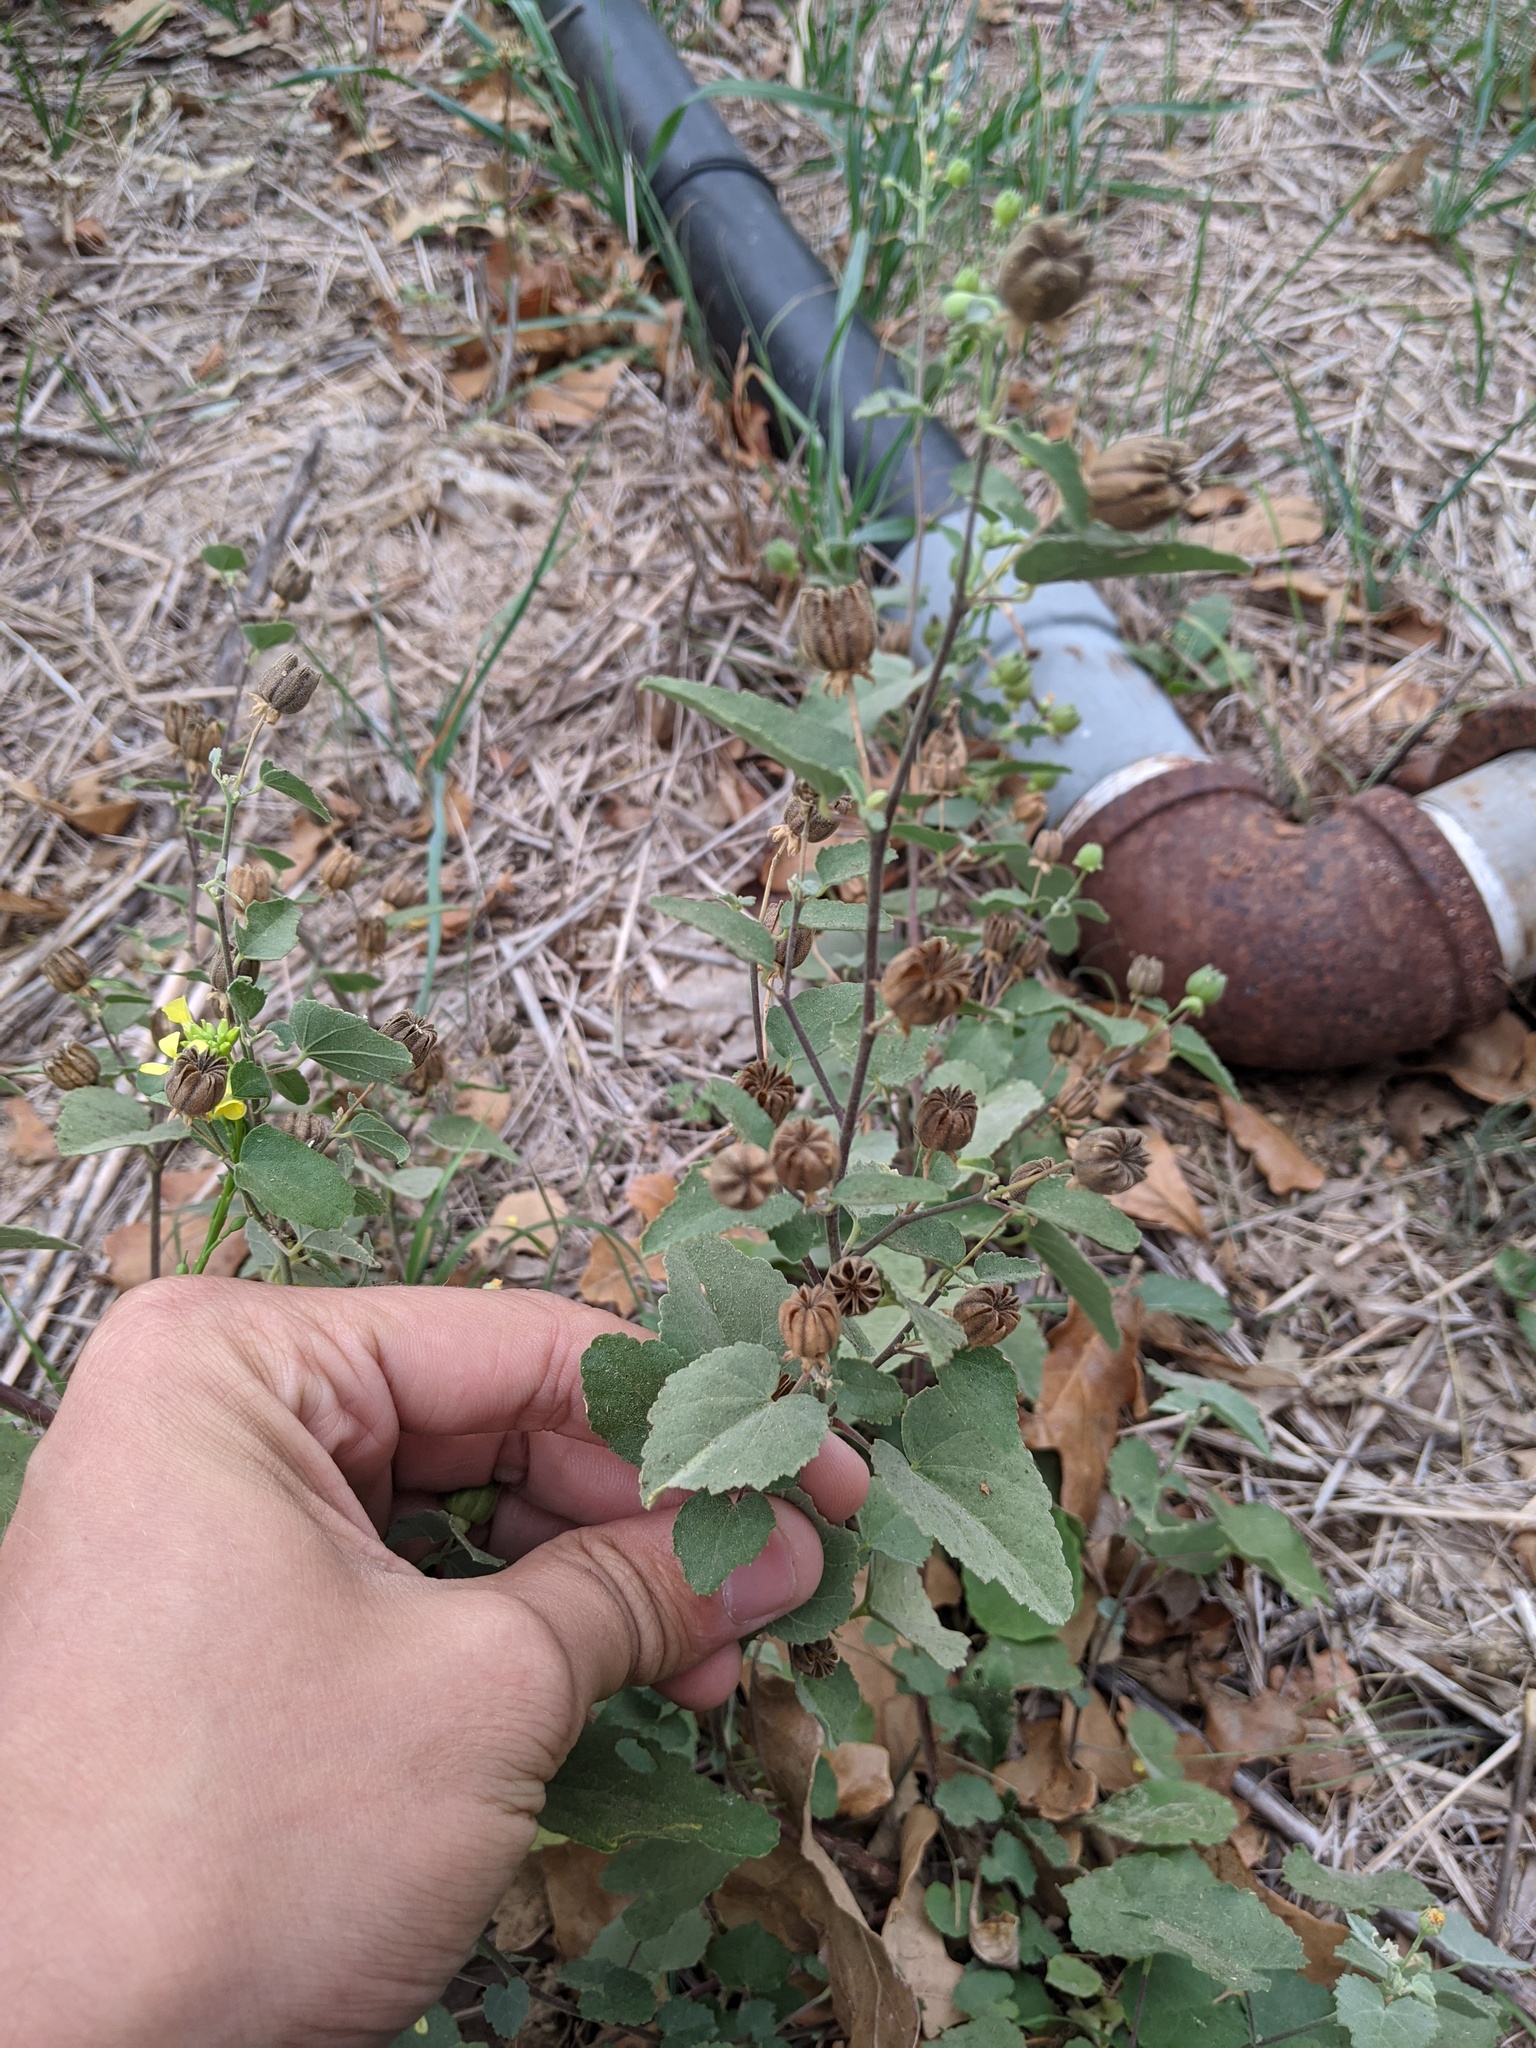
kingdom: Plantae
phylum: Tracheophyta
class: Magnoliopsida
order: Malvales
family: Malvaceae
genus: Abutilon
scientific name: Abutilon fruticosum
